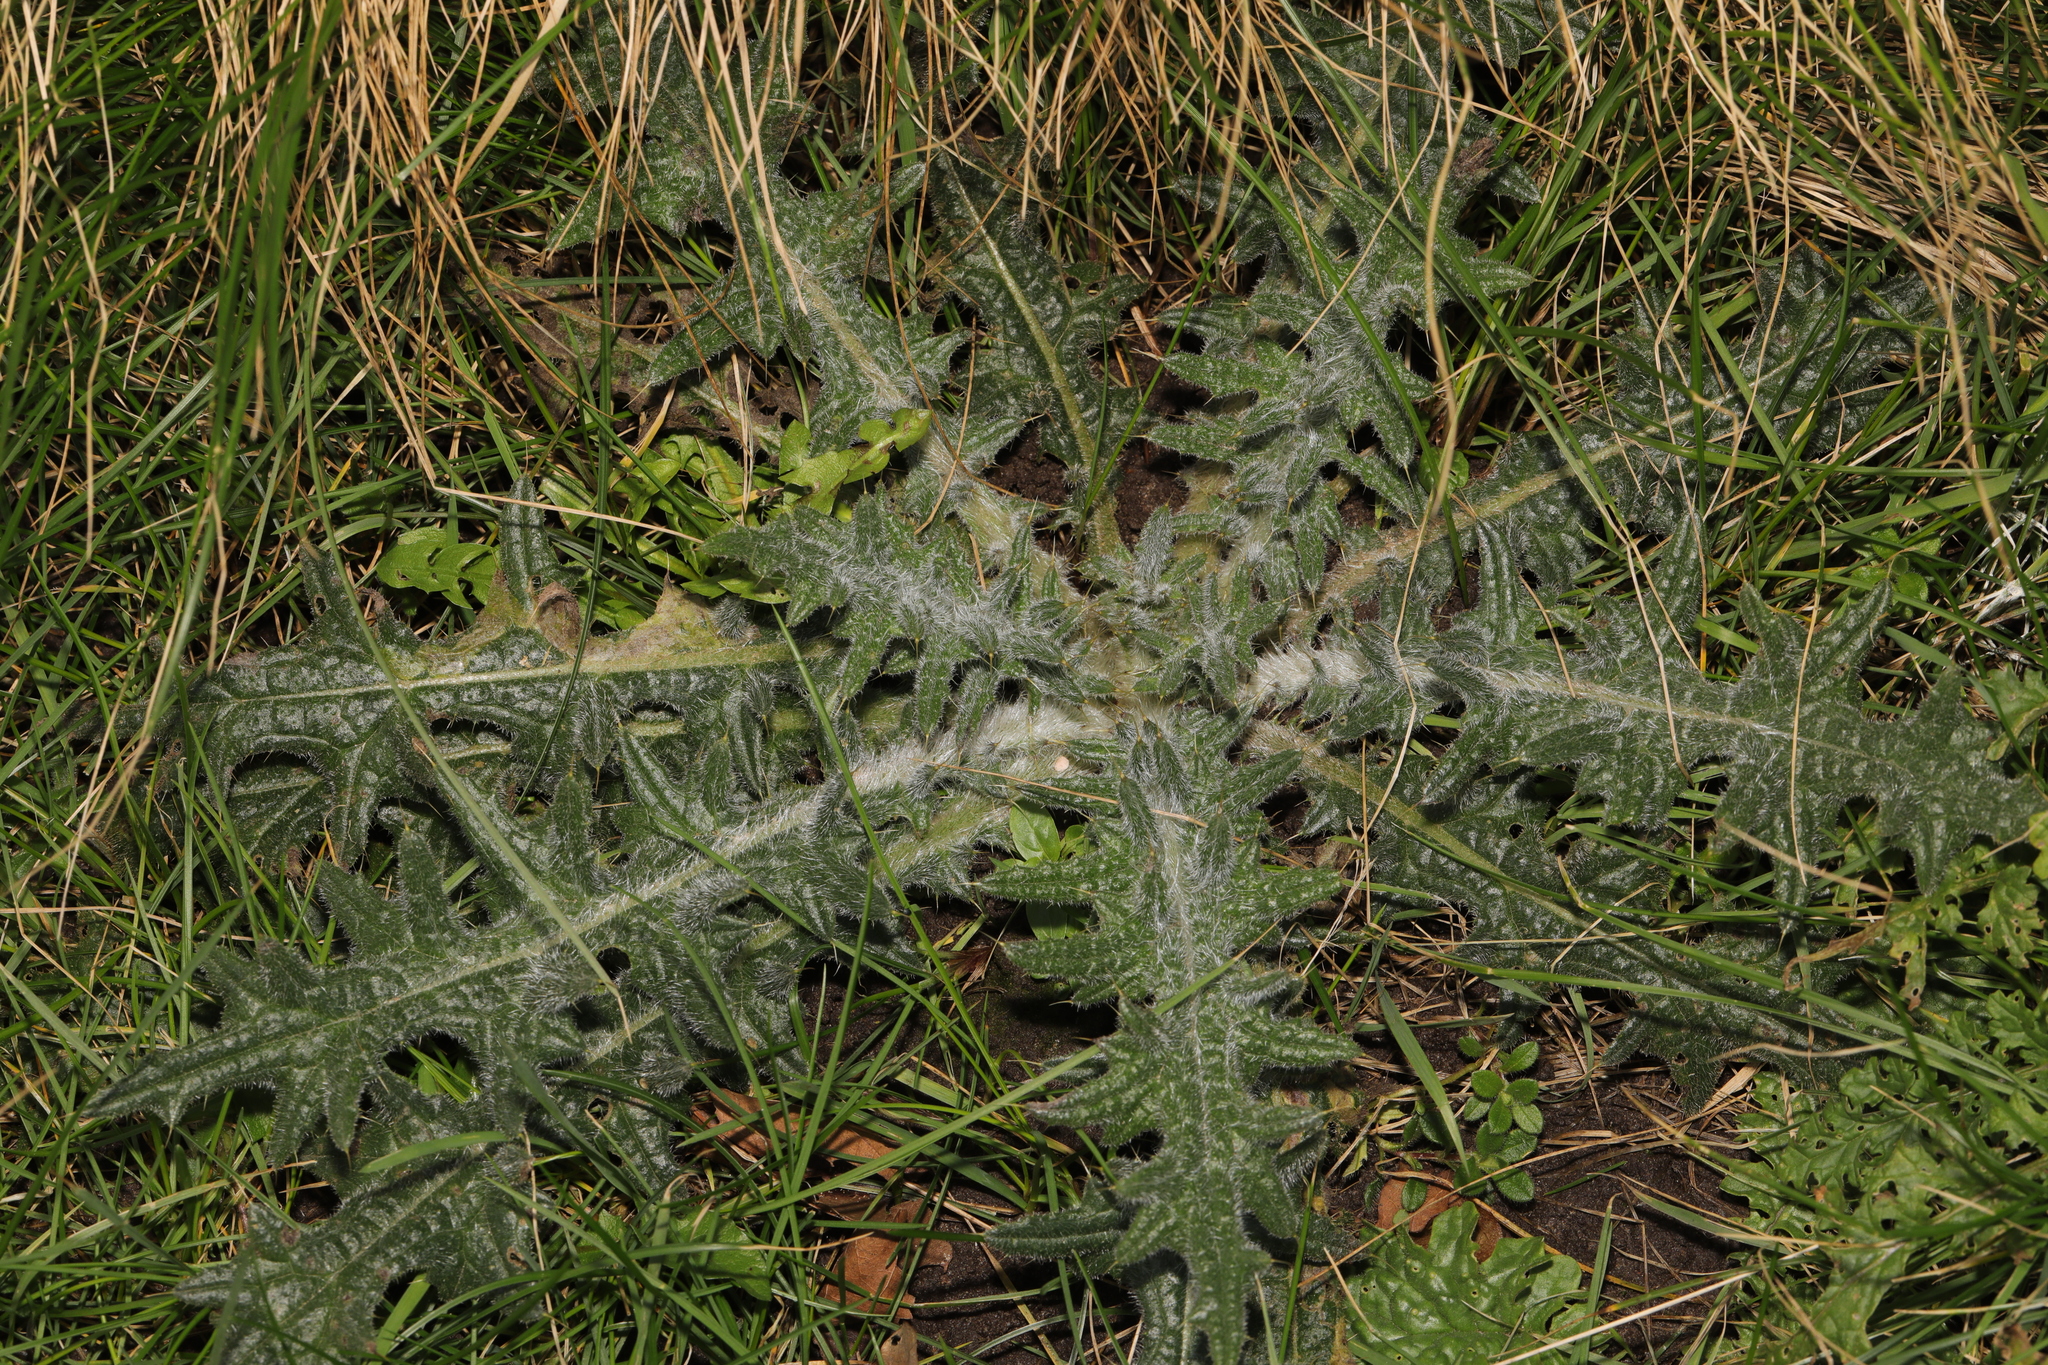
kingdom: Plantae
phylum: Tracheophyta
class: Magnoliopsida
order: Asterales
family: Asteraceae
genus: Cirsium
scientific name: Cirsium vulgare
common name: Bull thistle
